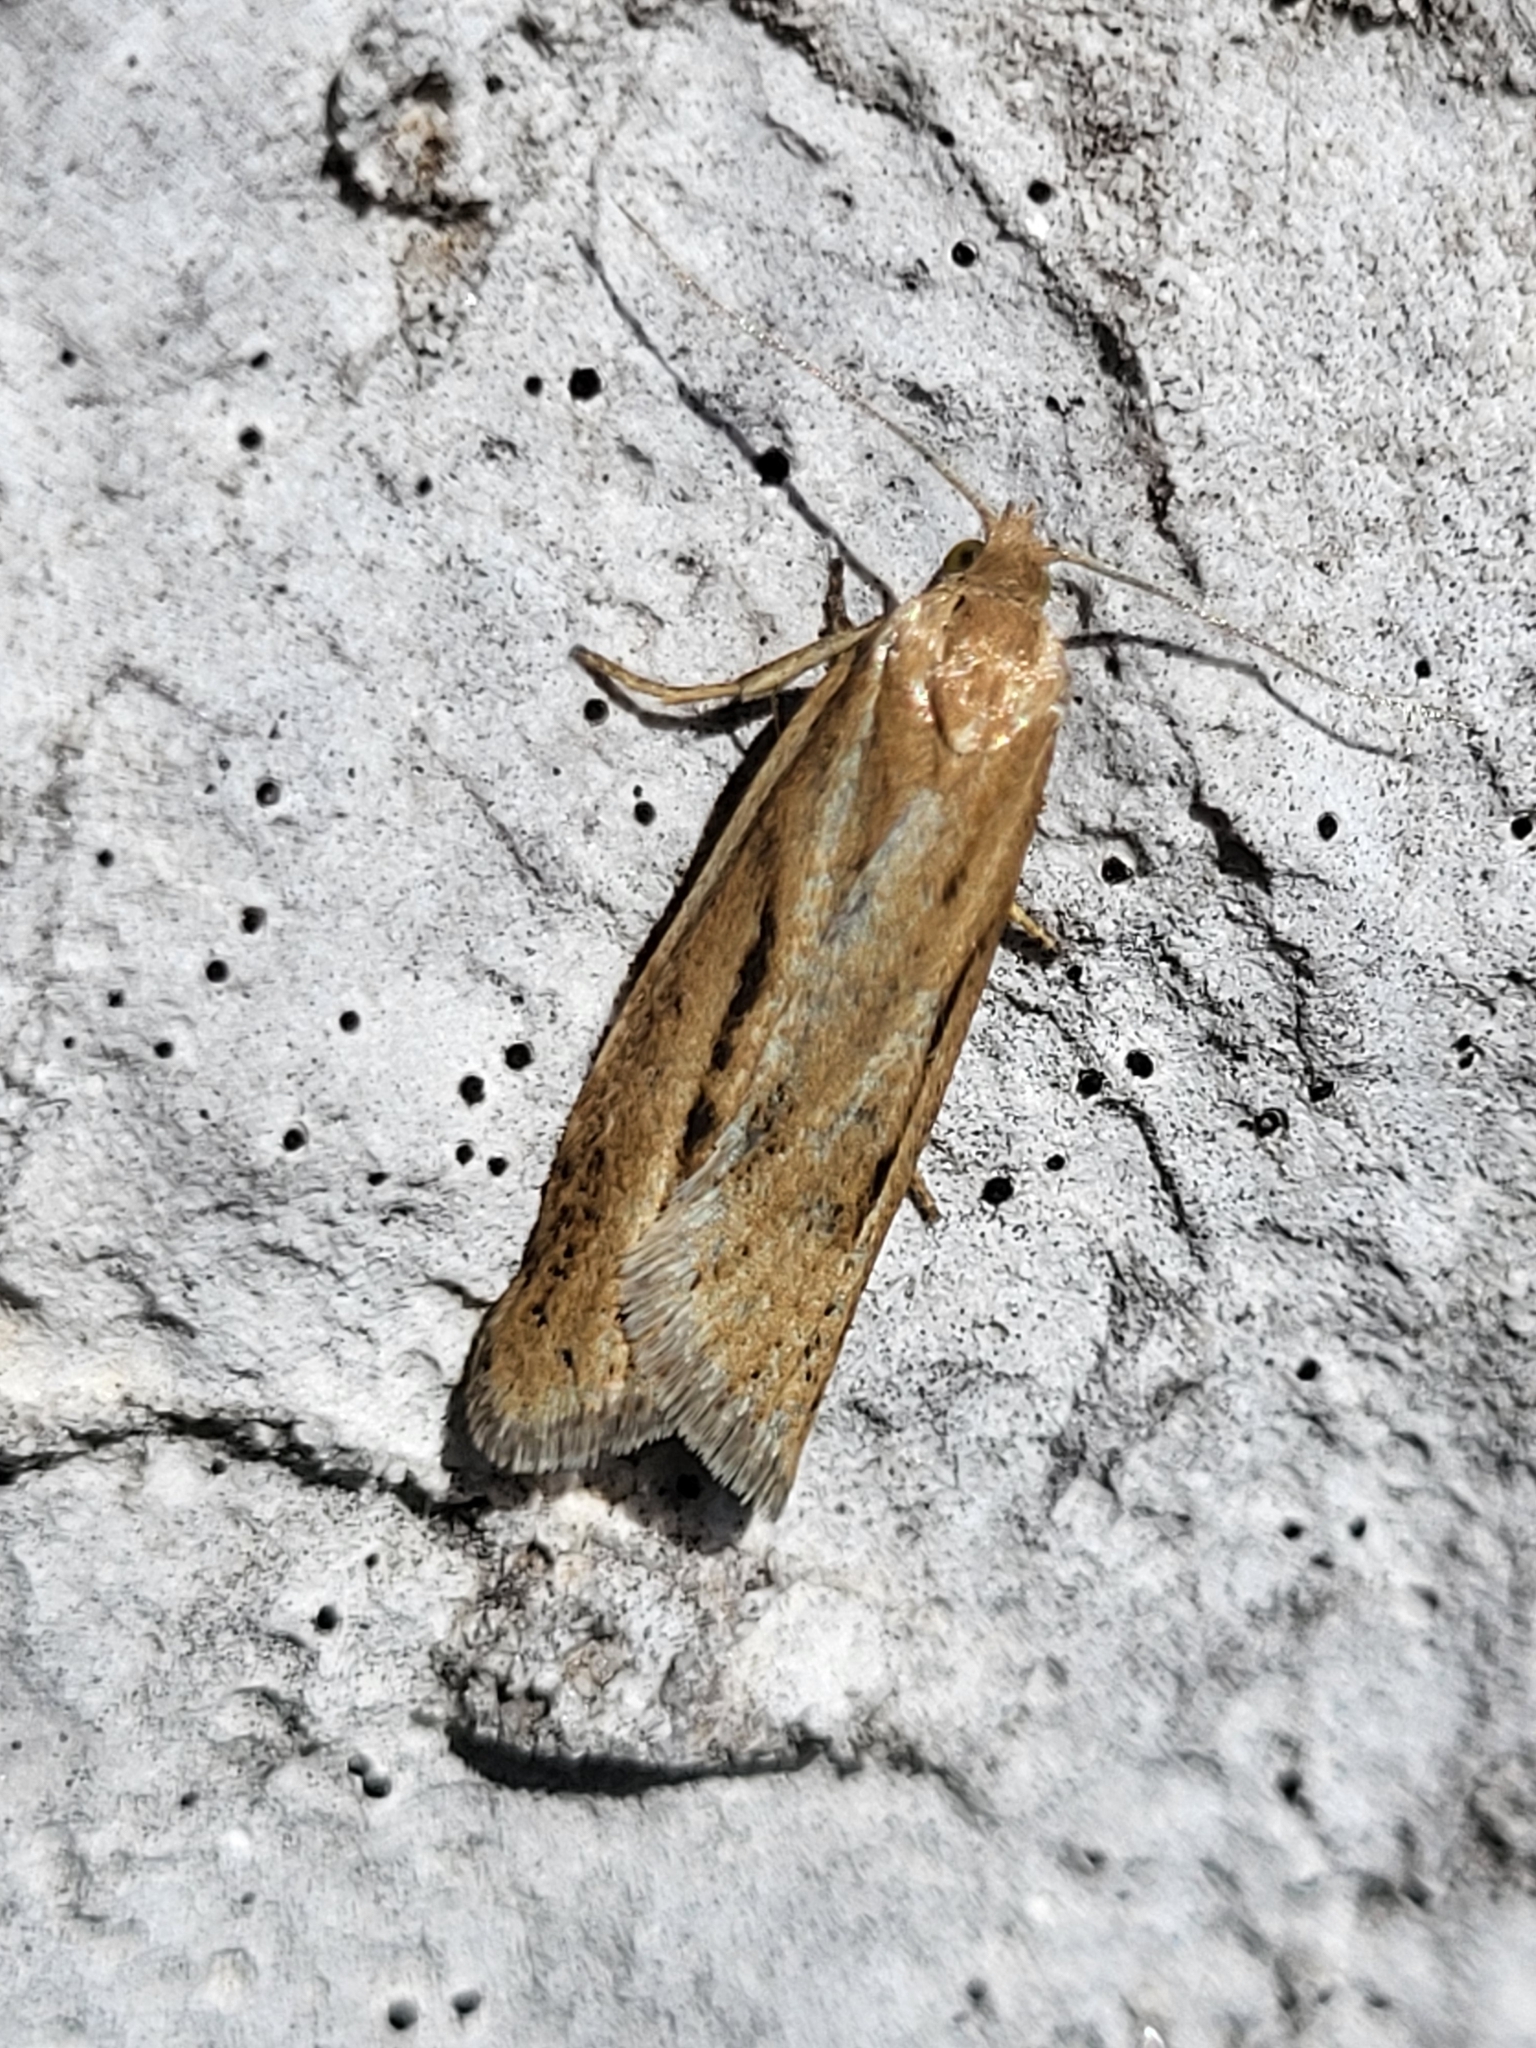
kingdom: Animalia
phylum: Arthropoda
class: Insecta
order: Lepidoptera
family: Tortricidae
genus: Eana
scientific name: Eana osseana
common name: Dotted shade
